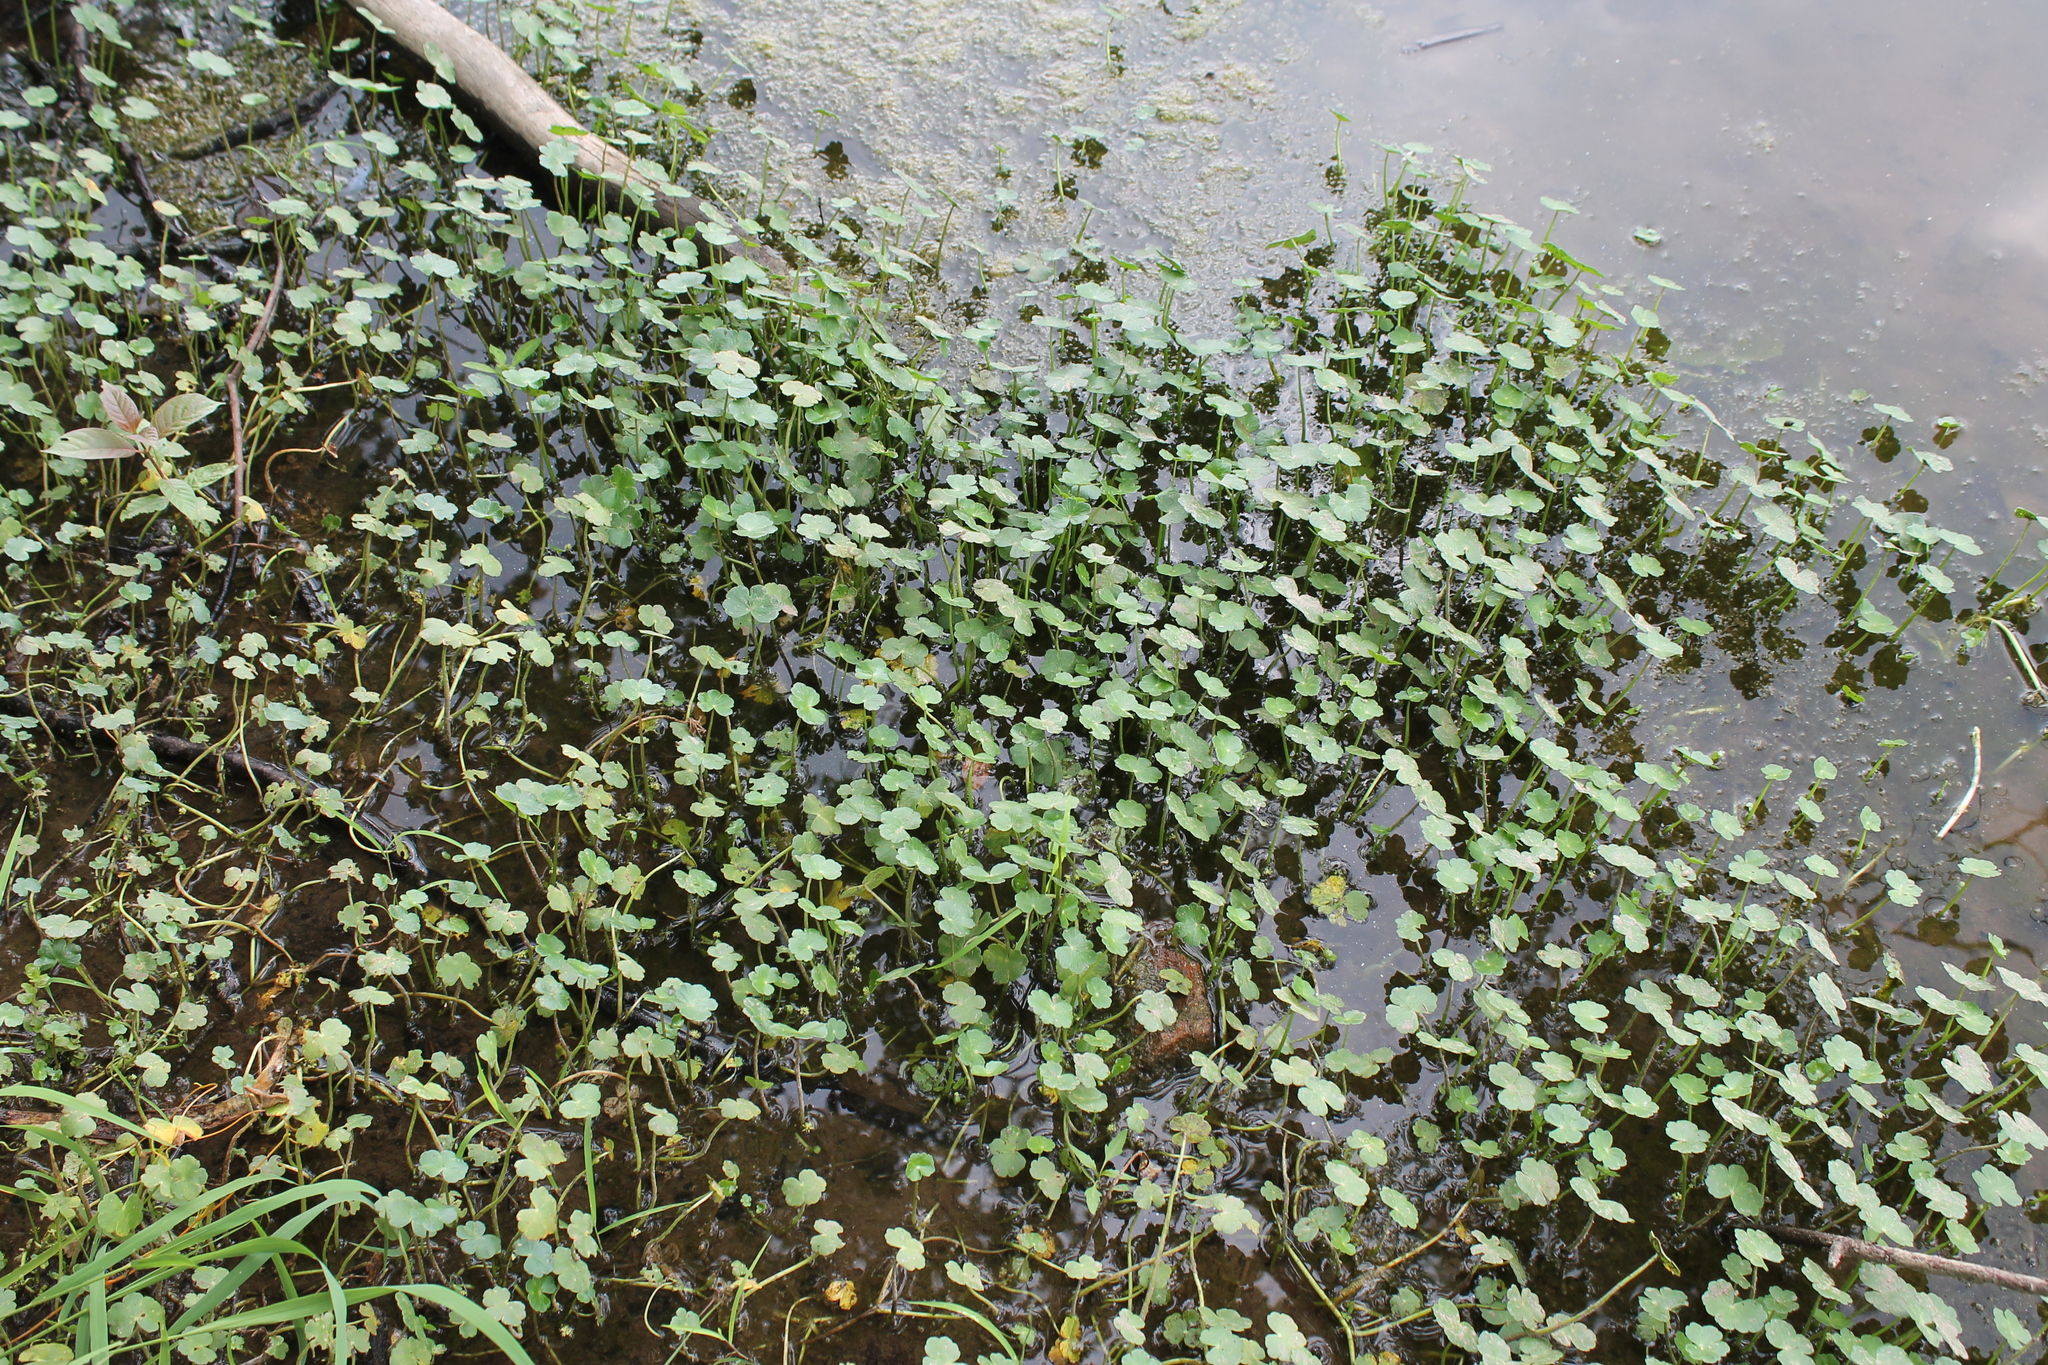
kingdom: Plantae
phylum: Tracheophyta
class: Magnoliopsida
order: Apiales
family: Araliaceae
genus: Hydrocotyle
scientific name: Hydrocotyle ranunculoides
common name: Floating pennywort
